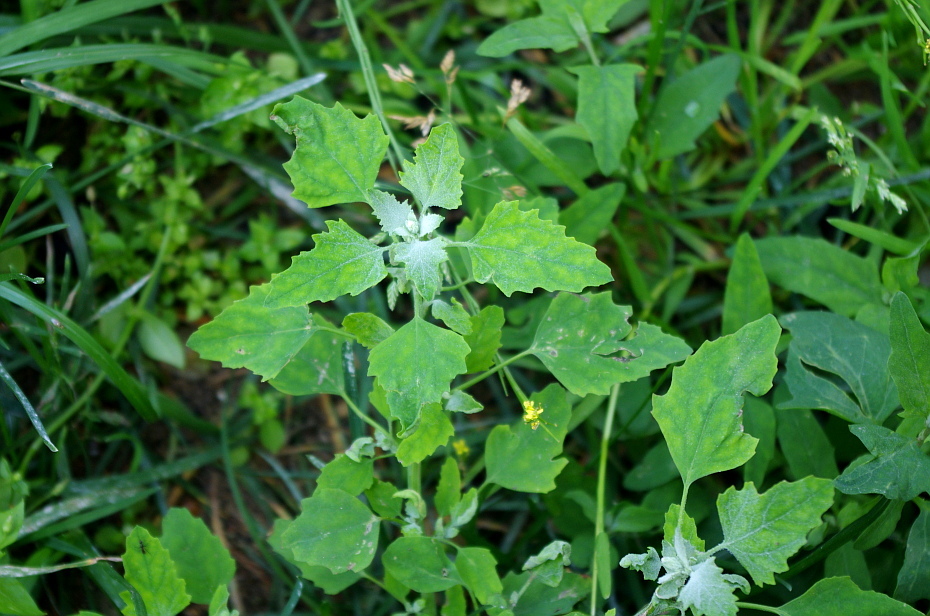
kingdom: Plantae
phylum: Tracheophyta
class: Magnoliopsida
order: Caryophyllales
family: Amaranthaceae
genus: Chenopodium
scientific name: Chenopodium album
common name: Fat-hen
